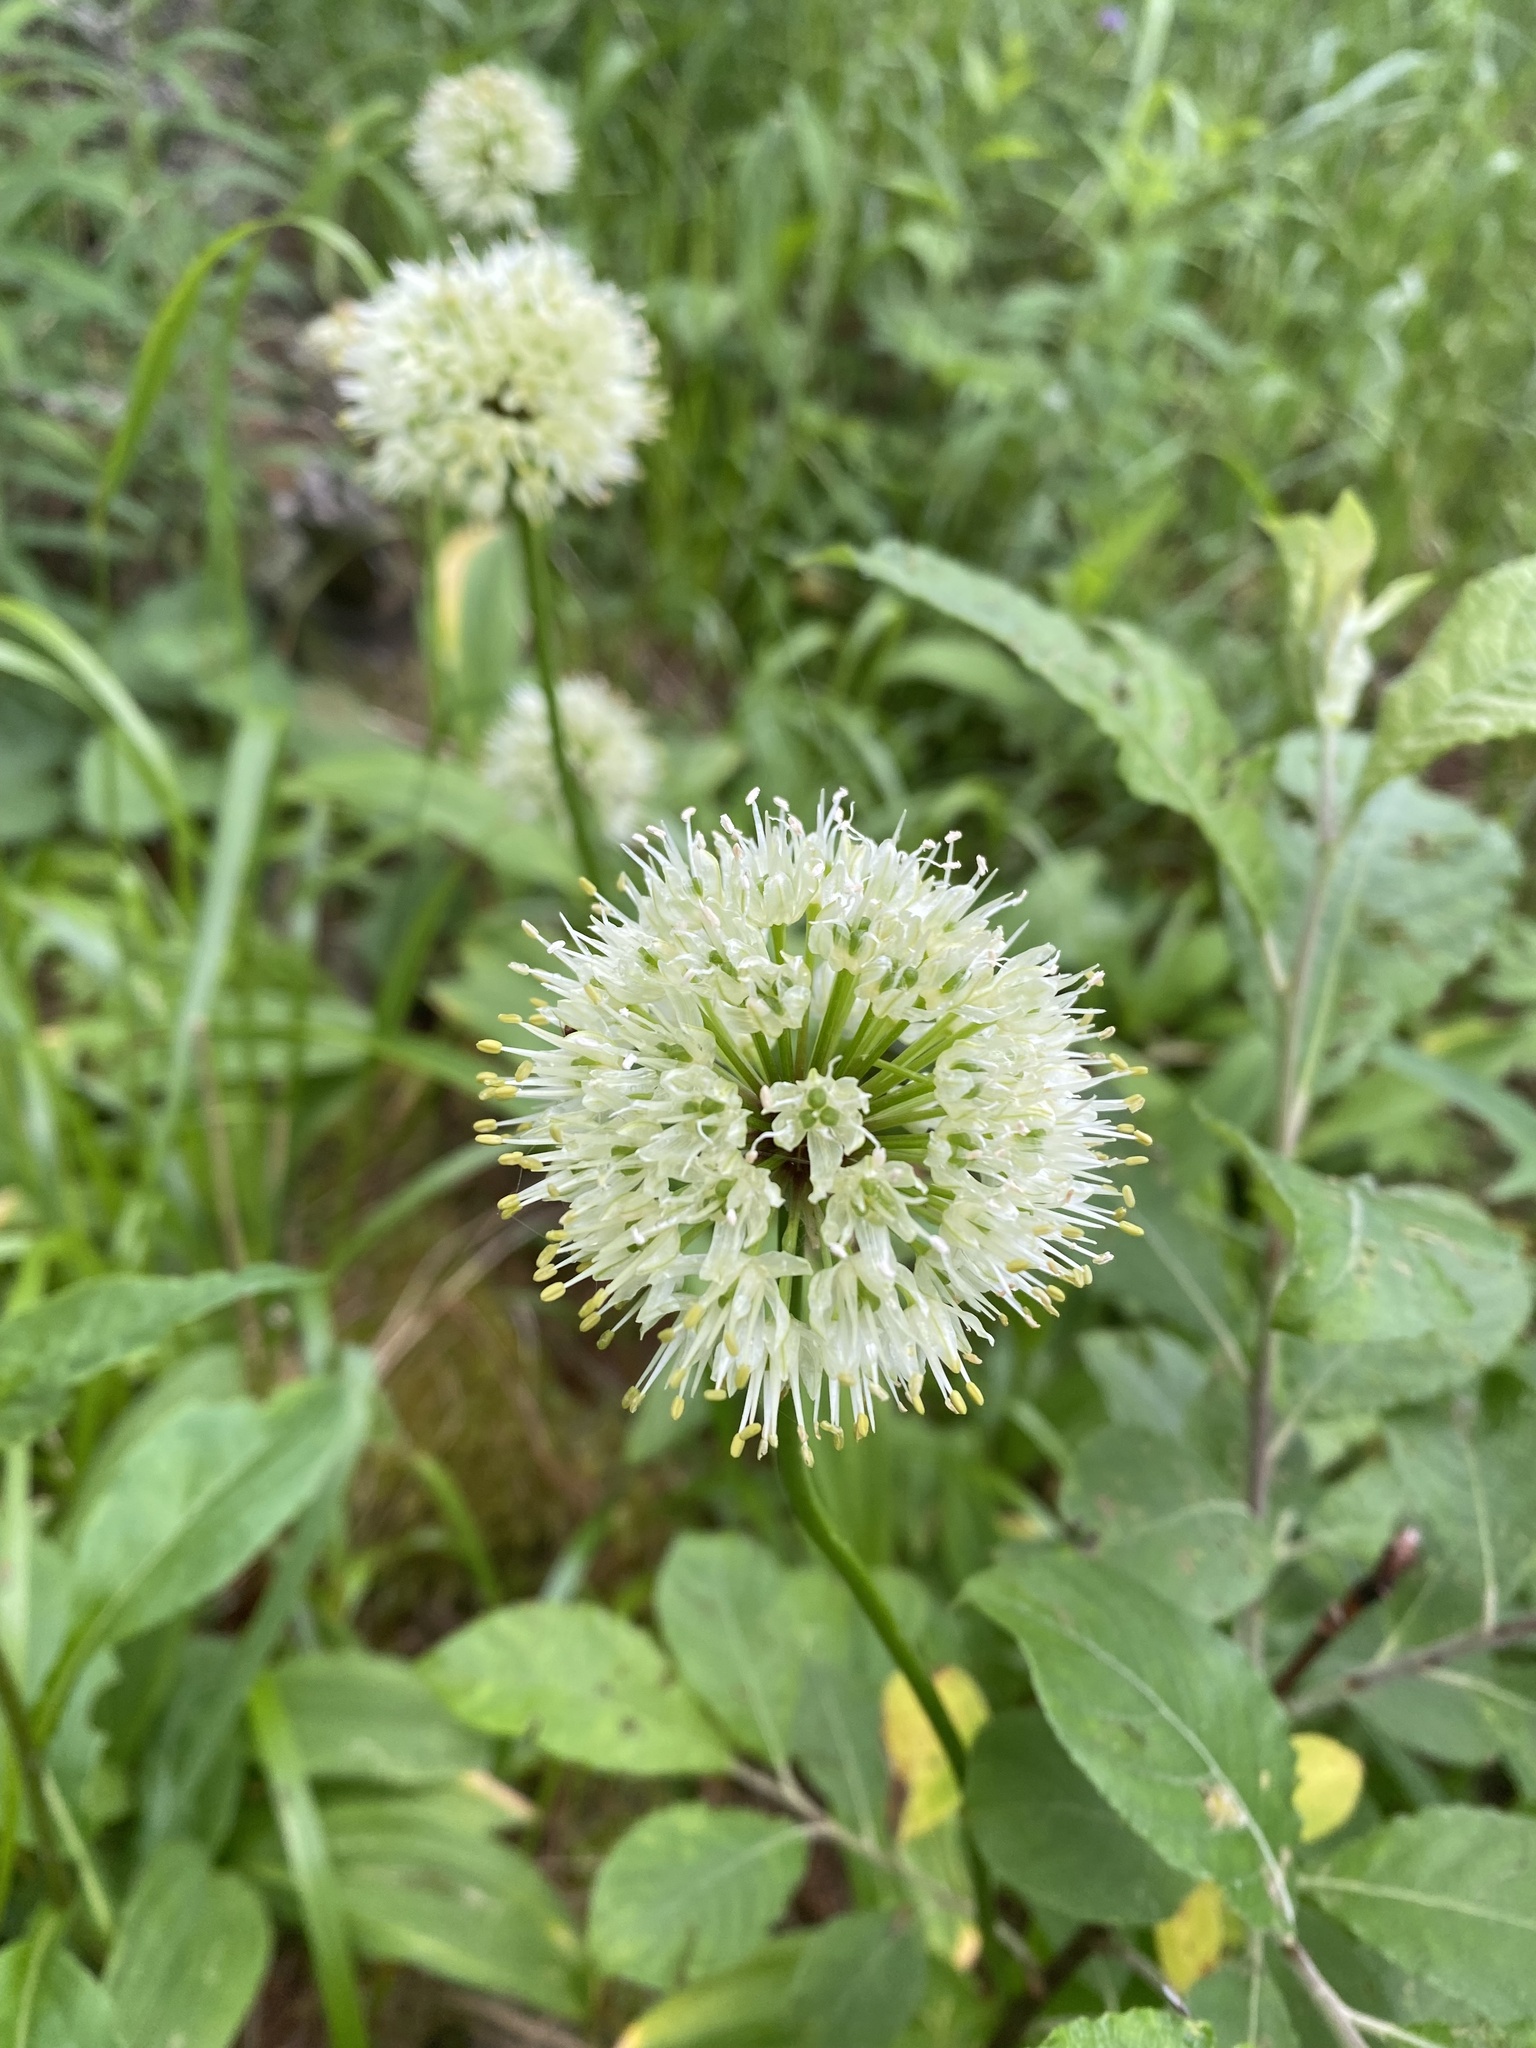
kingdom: Plantae
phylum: Tracheophyta
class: Liliopsida
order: Asparagales
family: Amaryllidaceae
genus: Allium
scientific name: Allium victorialis
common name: Alpine leek
